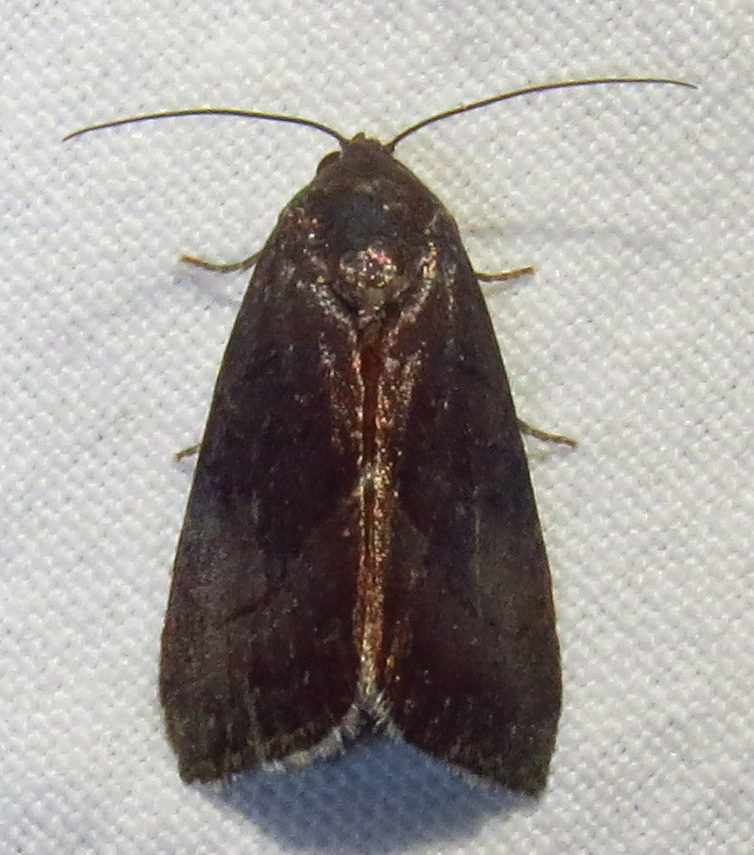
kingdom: Animalia
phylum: Arthropoda
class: Insecta
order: Lepidoptera
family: Noctuidae
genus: Galgula
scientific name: Galgula partita
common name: Wedgeling
